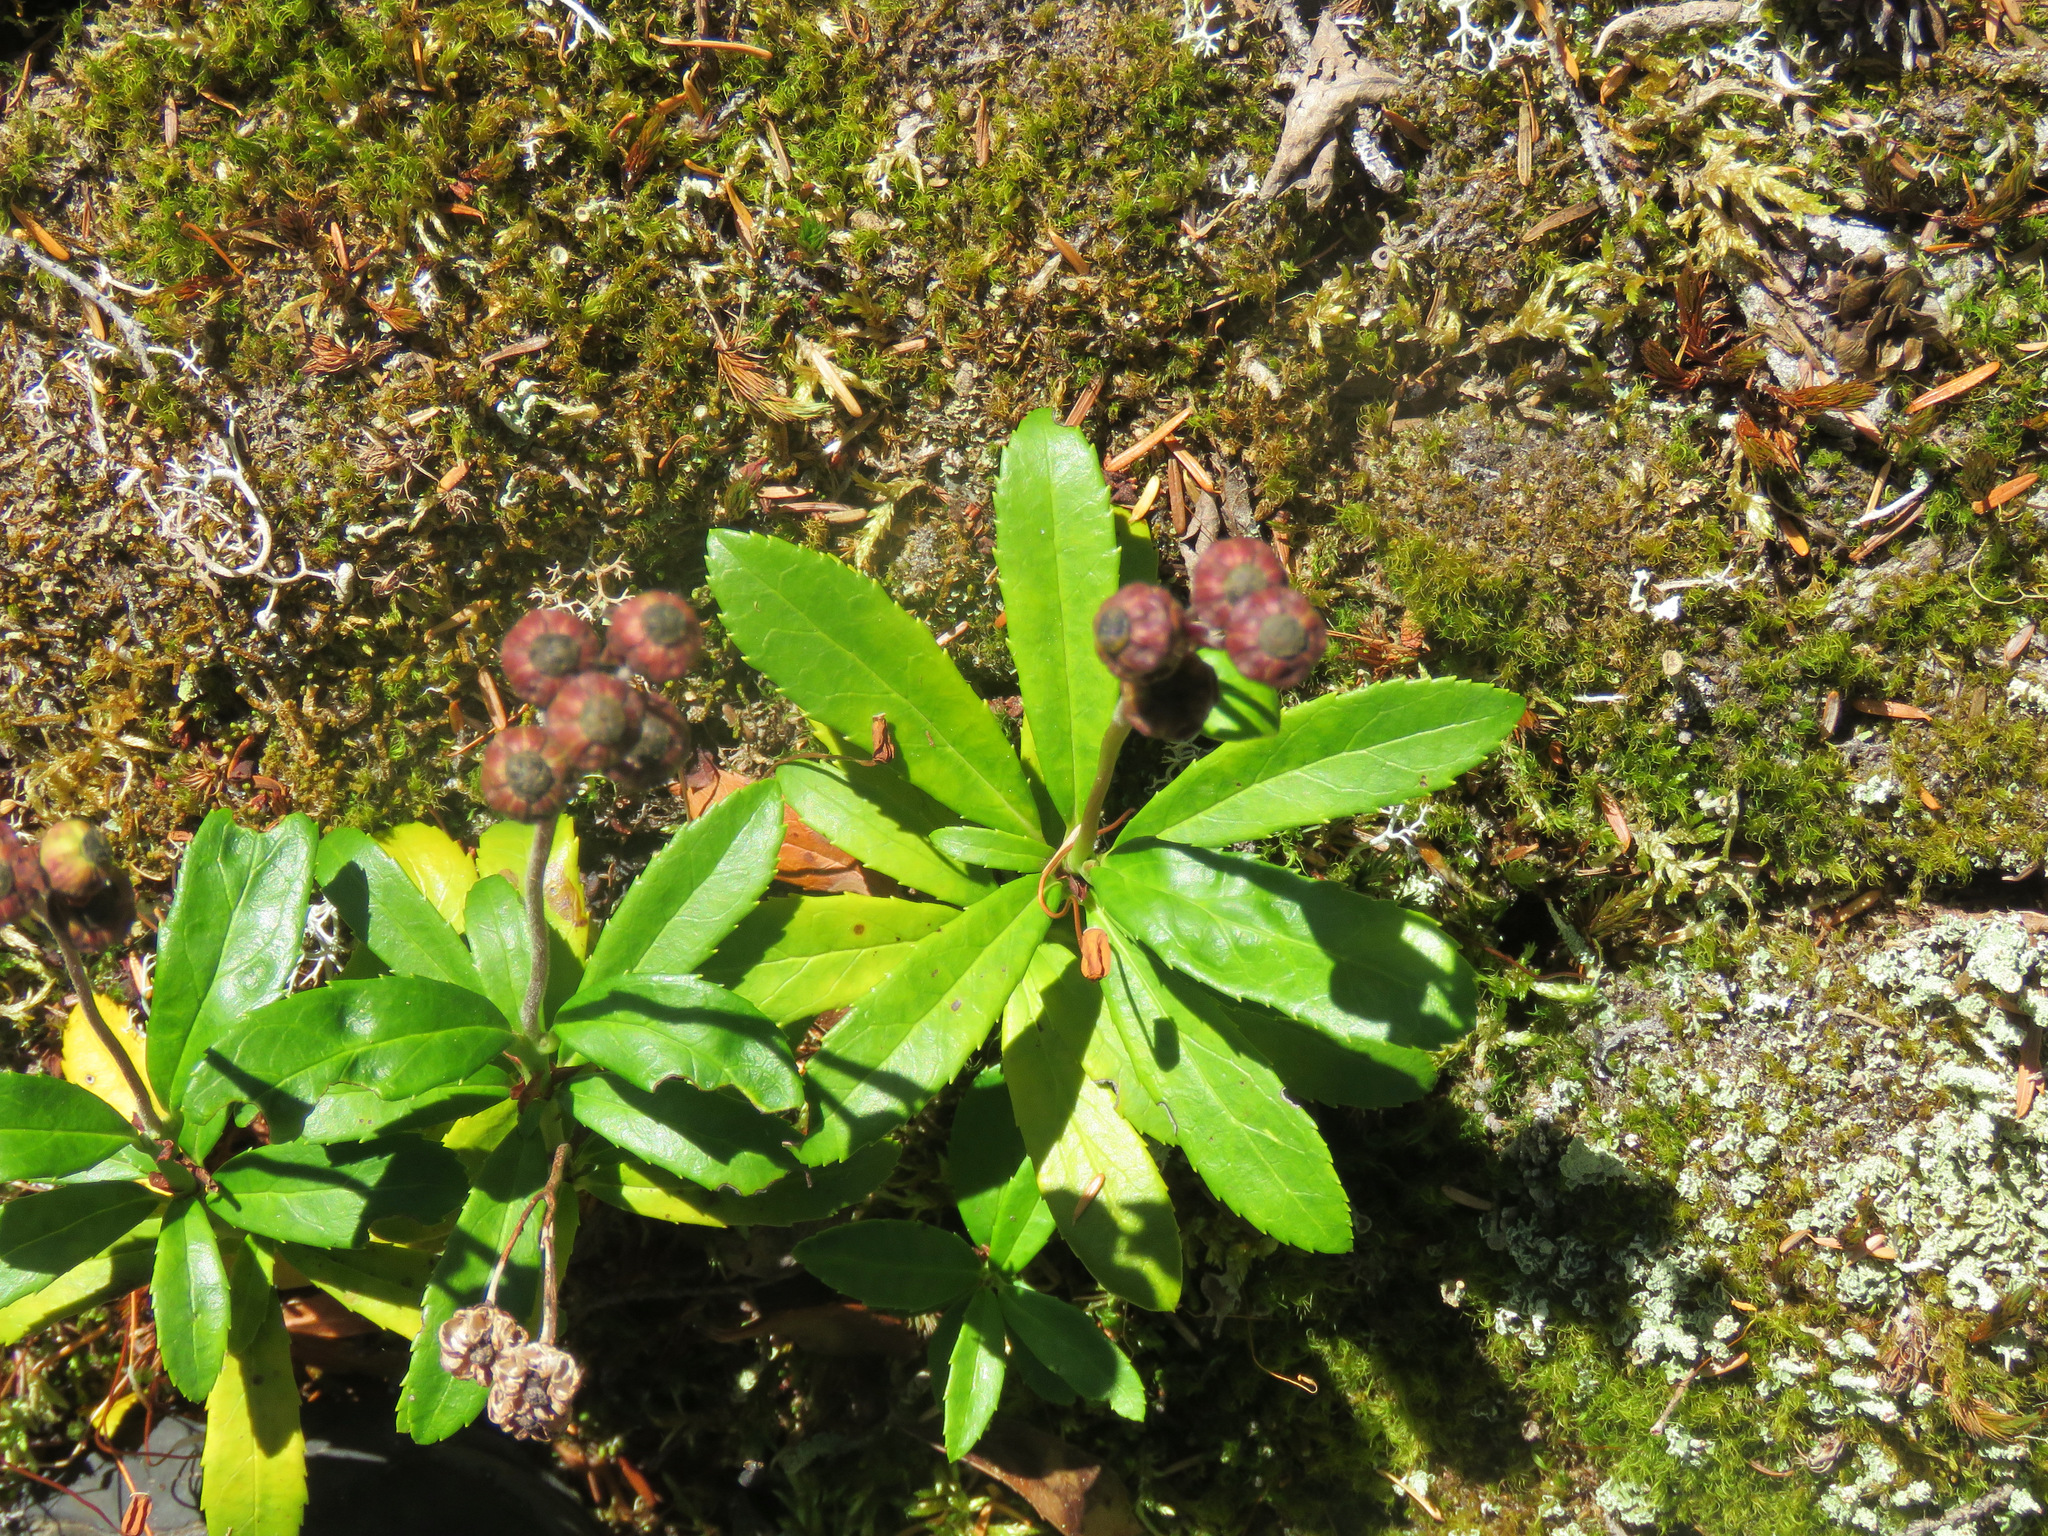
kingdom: Plantae
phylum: Tracheophyta
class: Magnoliopsida
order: Ericales
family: Ericaceae
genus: Chimaphila
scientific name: Chimaphila umbellata
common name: Pipsissewa
